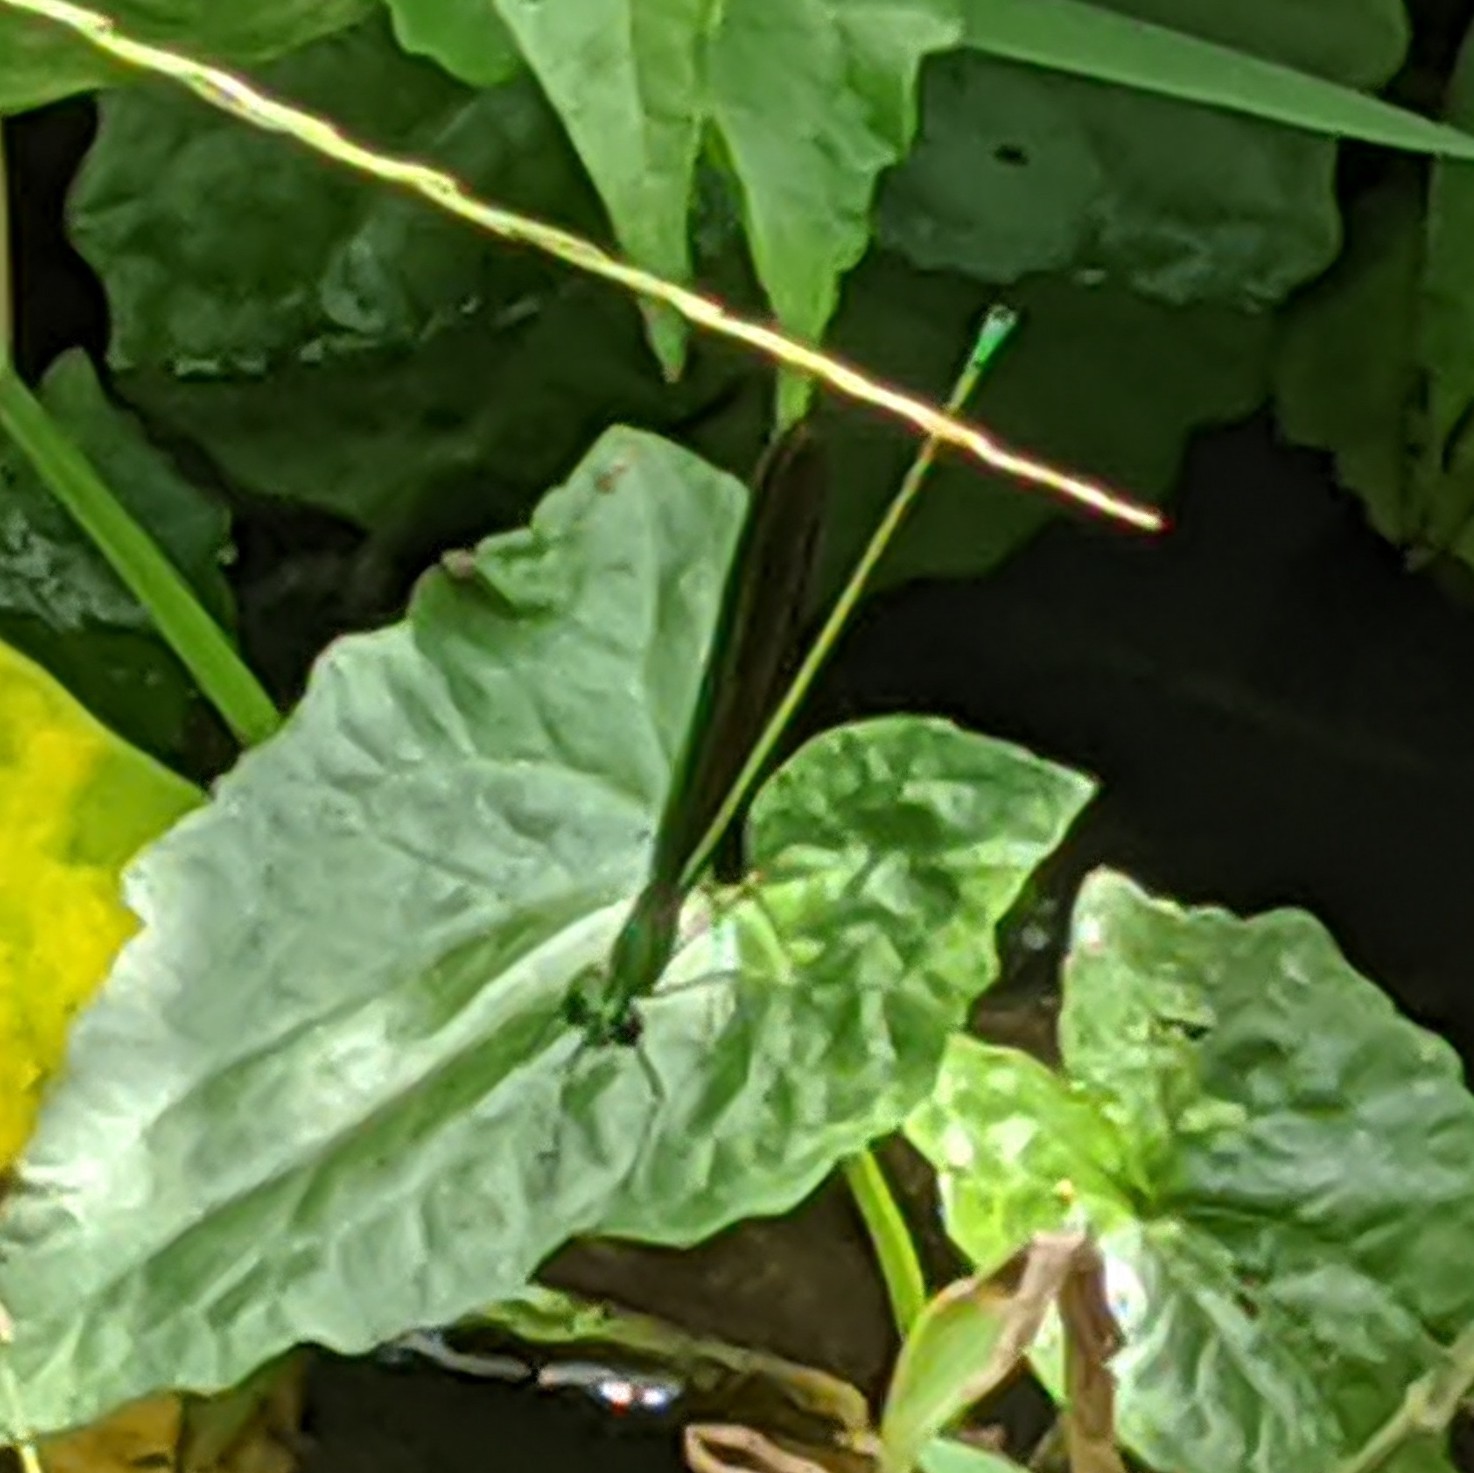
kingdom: Animalia
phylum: Arthropoda
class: Insecta
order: Odonata
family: Calopterygidae
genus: Neurobasis
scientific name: Neurobasis chinensis
